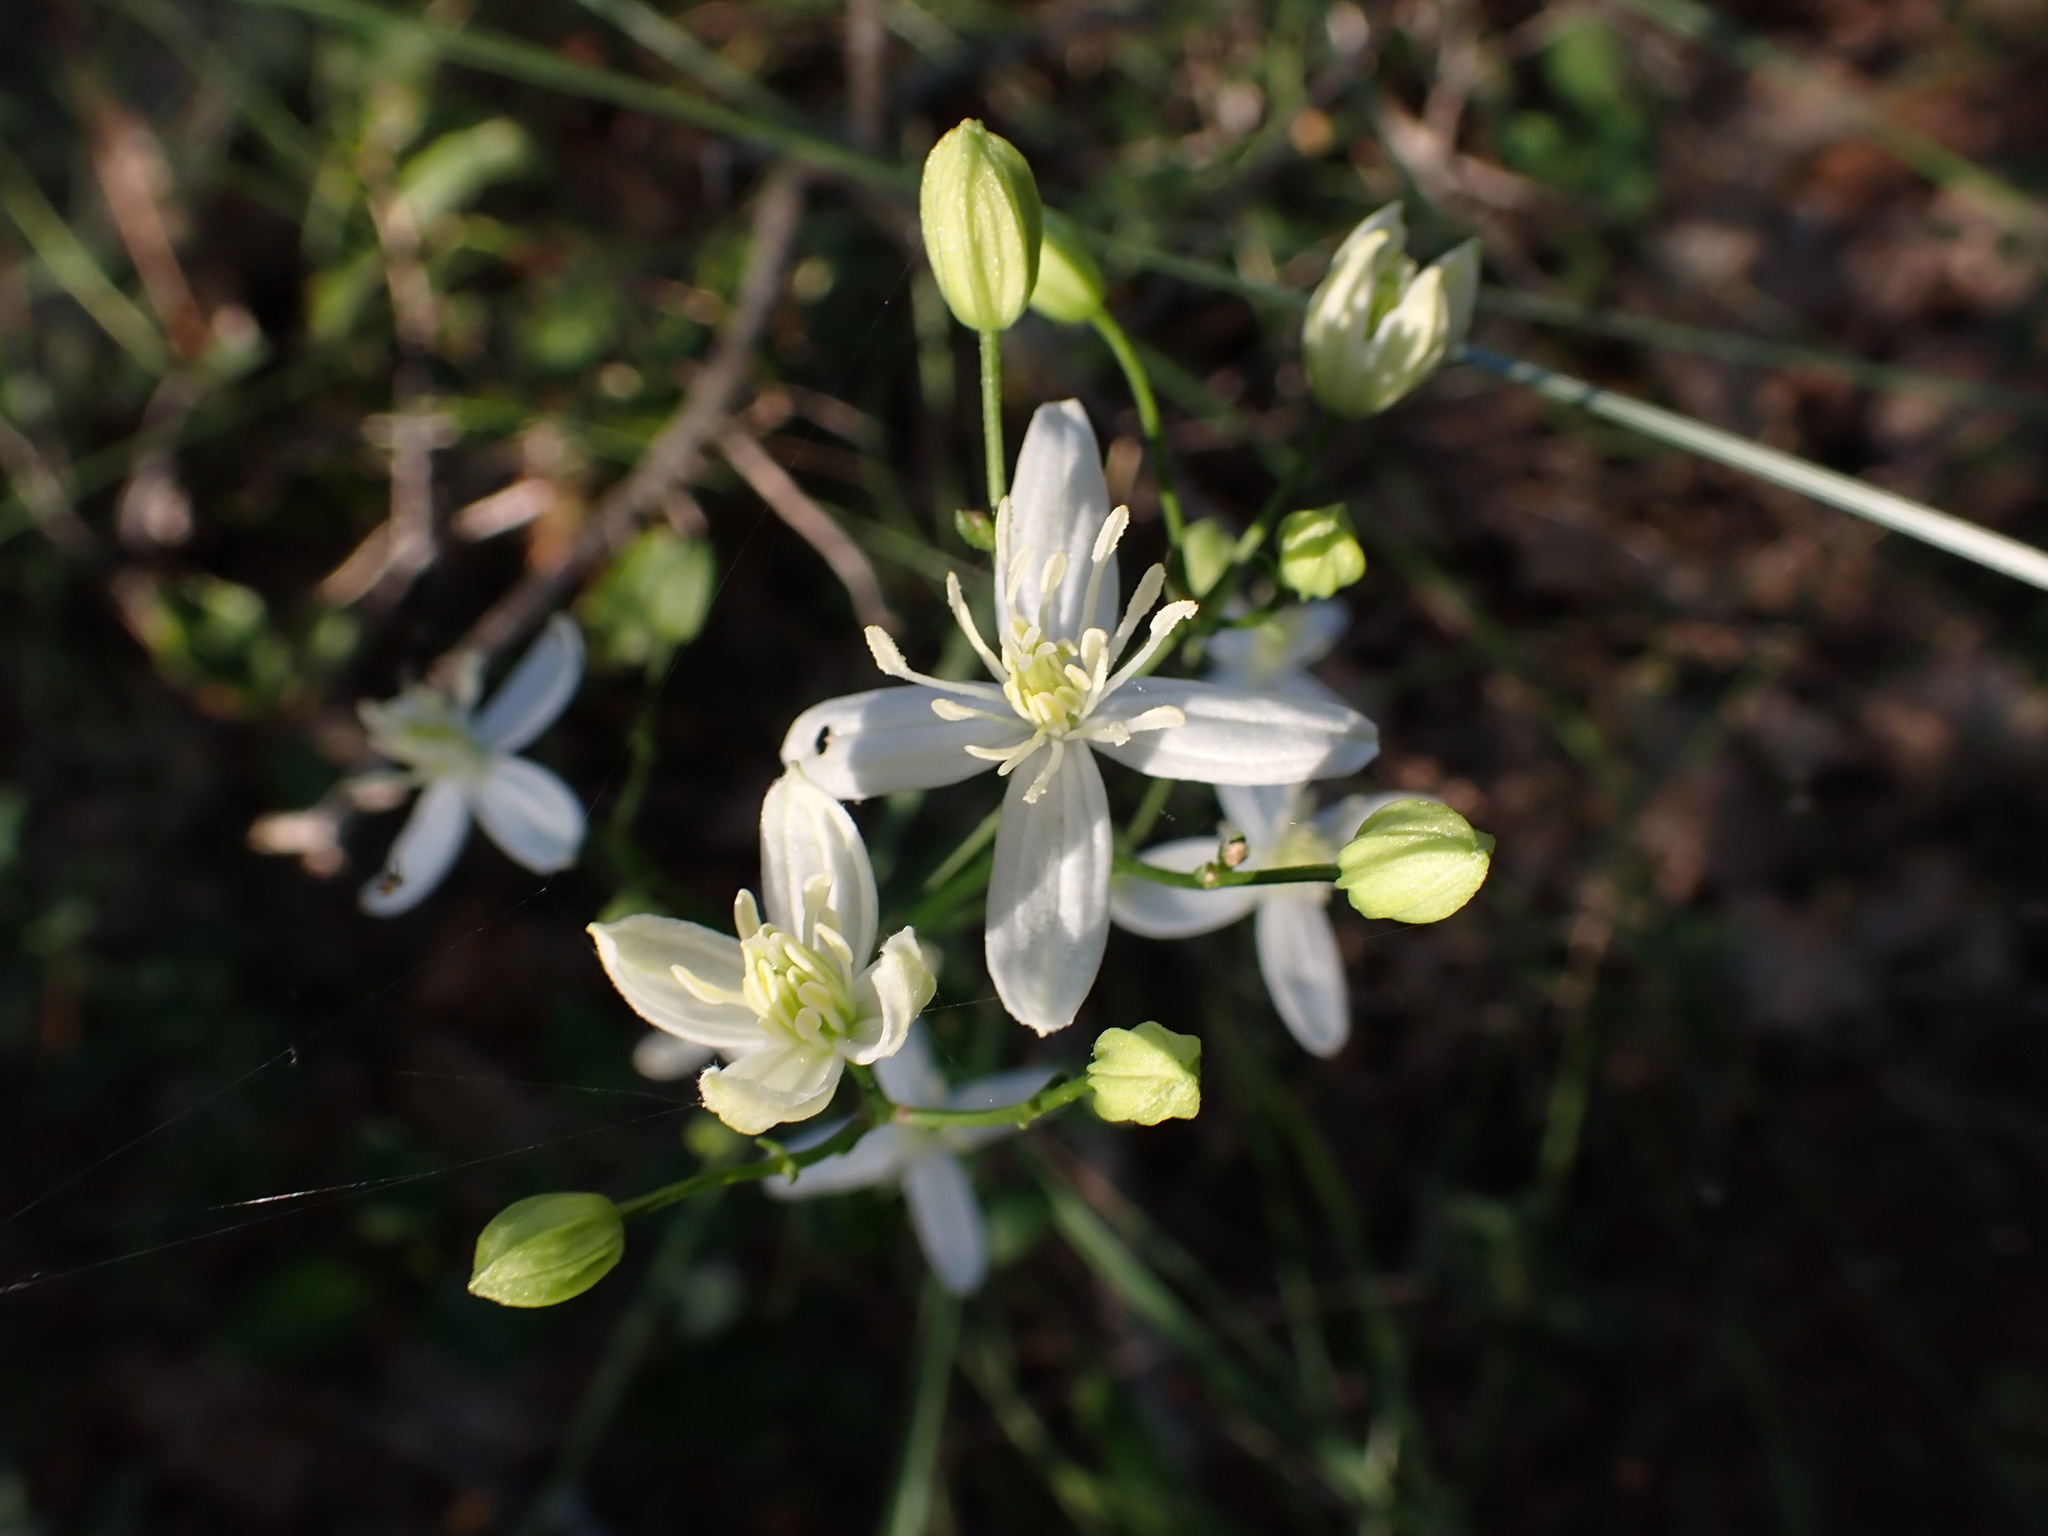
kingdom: Plantae
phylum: Tracheophyta
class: Magnoliopsida
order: Ranunculales
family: Ranunculaceae
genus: Clematis
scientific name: Clematis flammula
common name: Virgin's-bower
